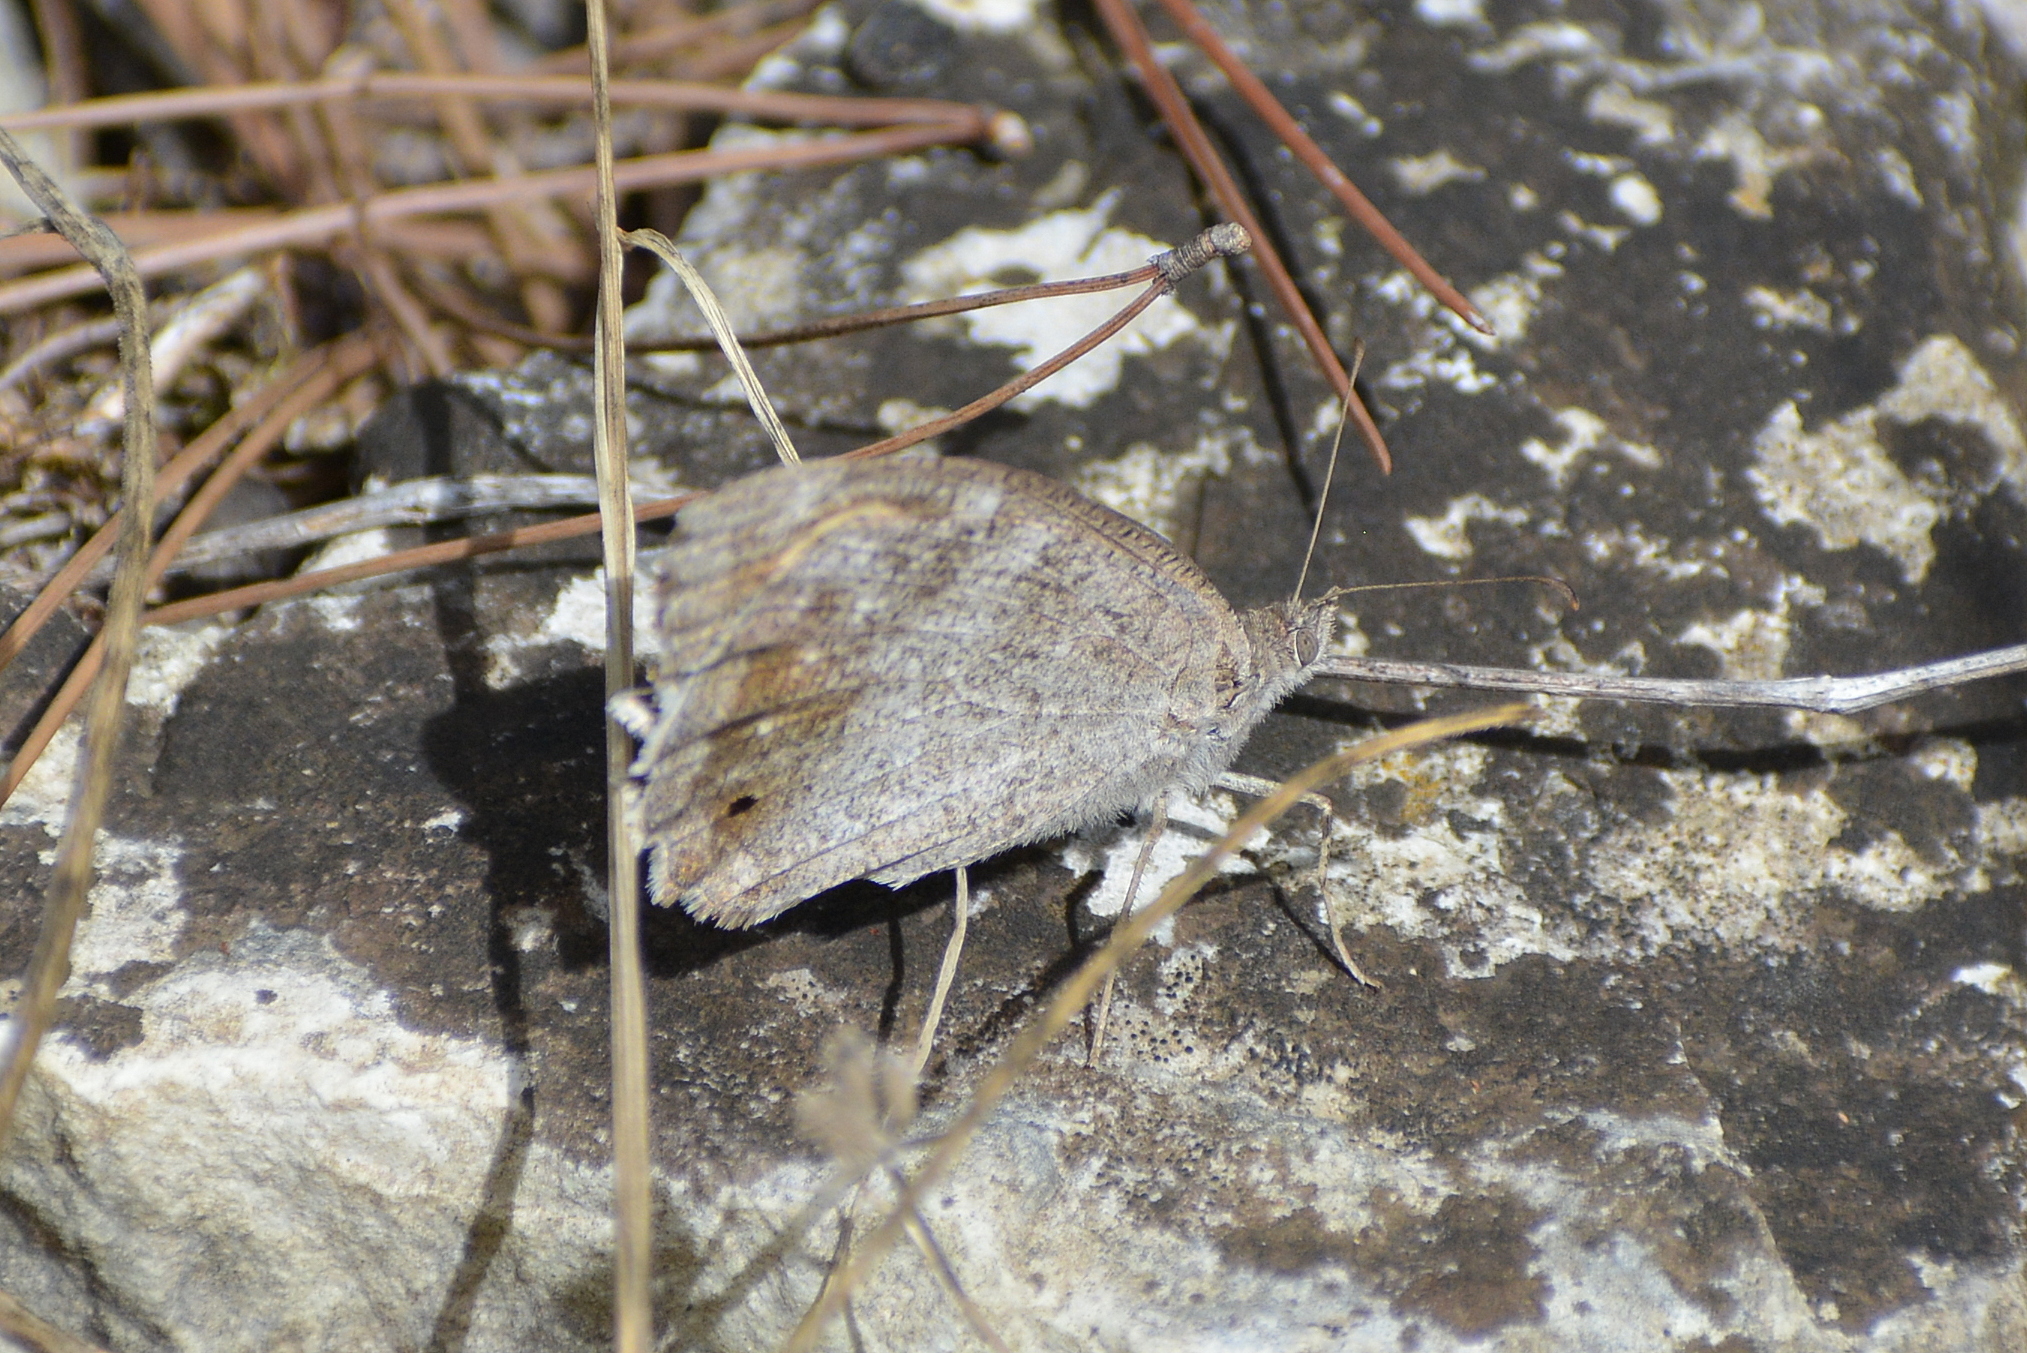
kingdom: Animalia
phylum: Arthropoda
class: Insecta
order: Lepidoptera
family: Nymphalidae
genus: Hipparchia
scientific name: Hipparchia statilinus
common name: Tree grayling
